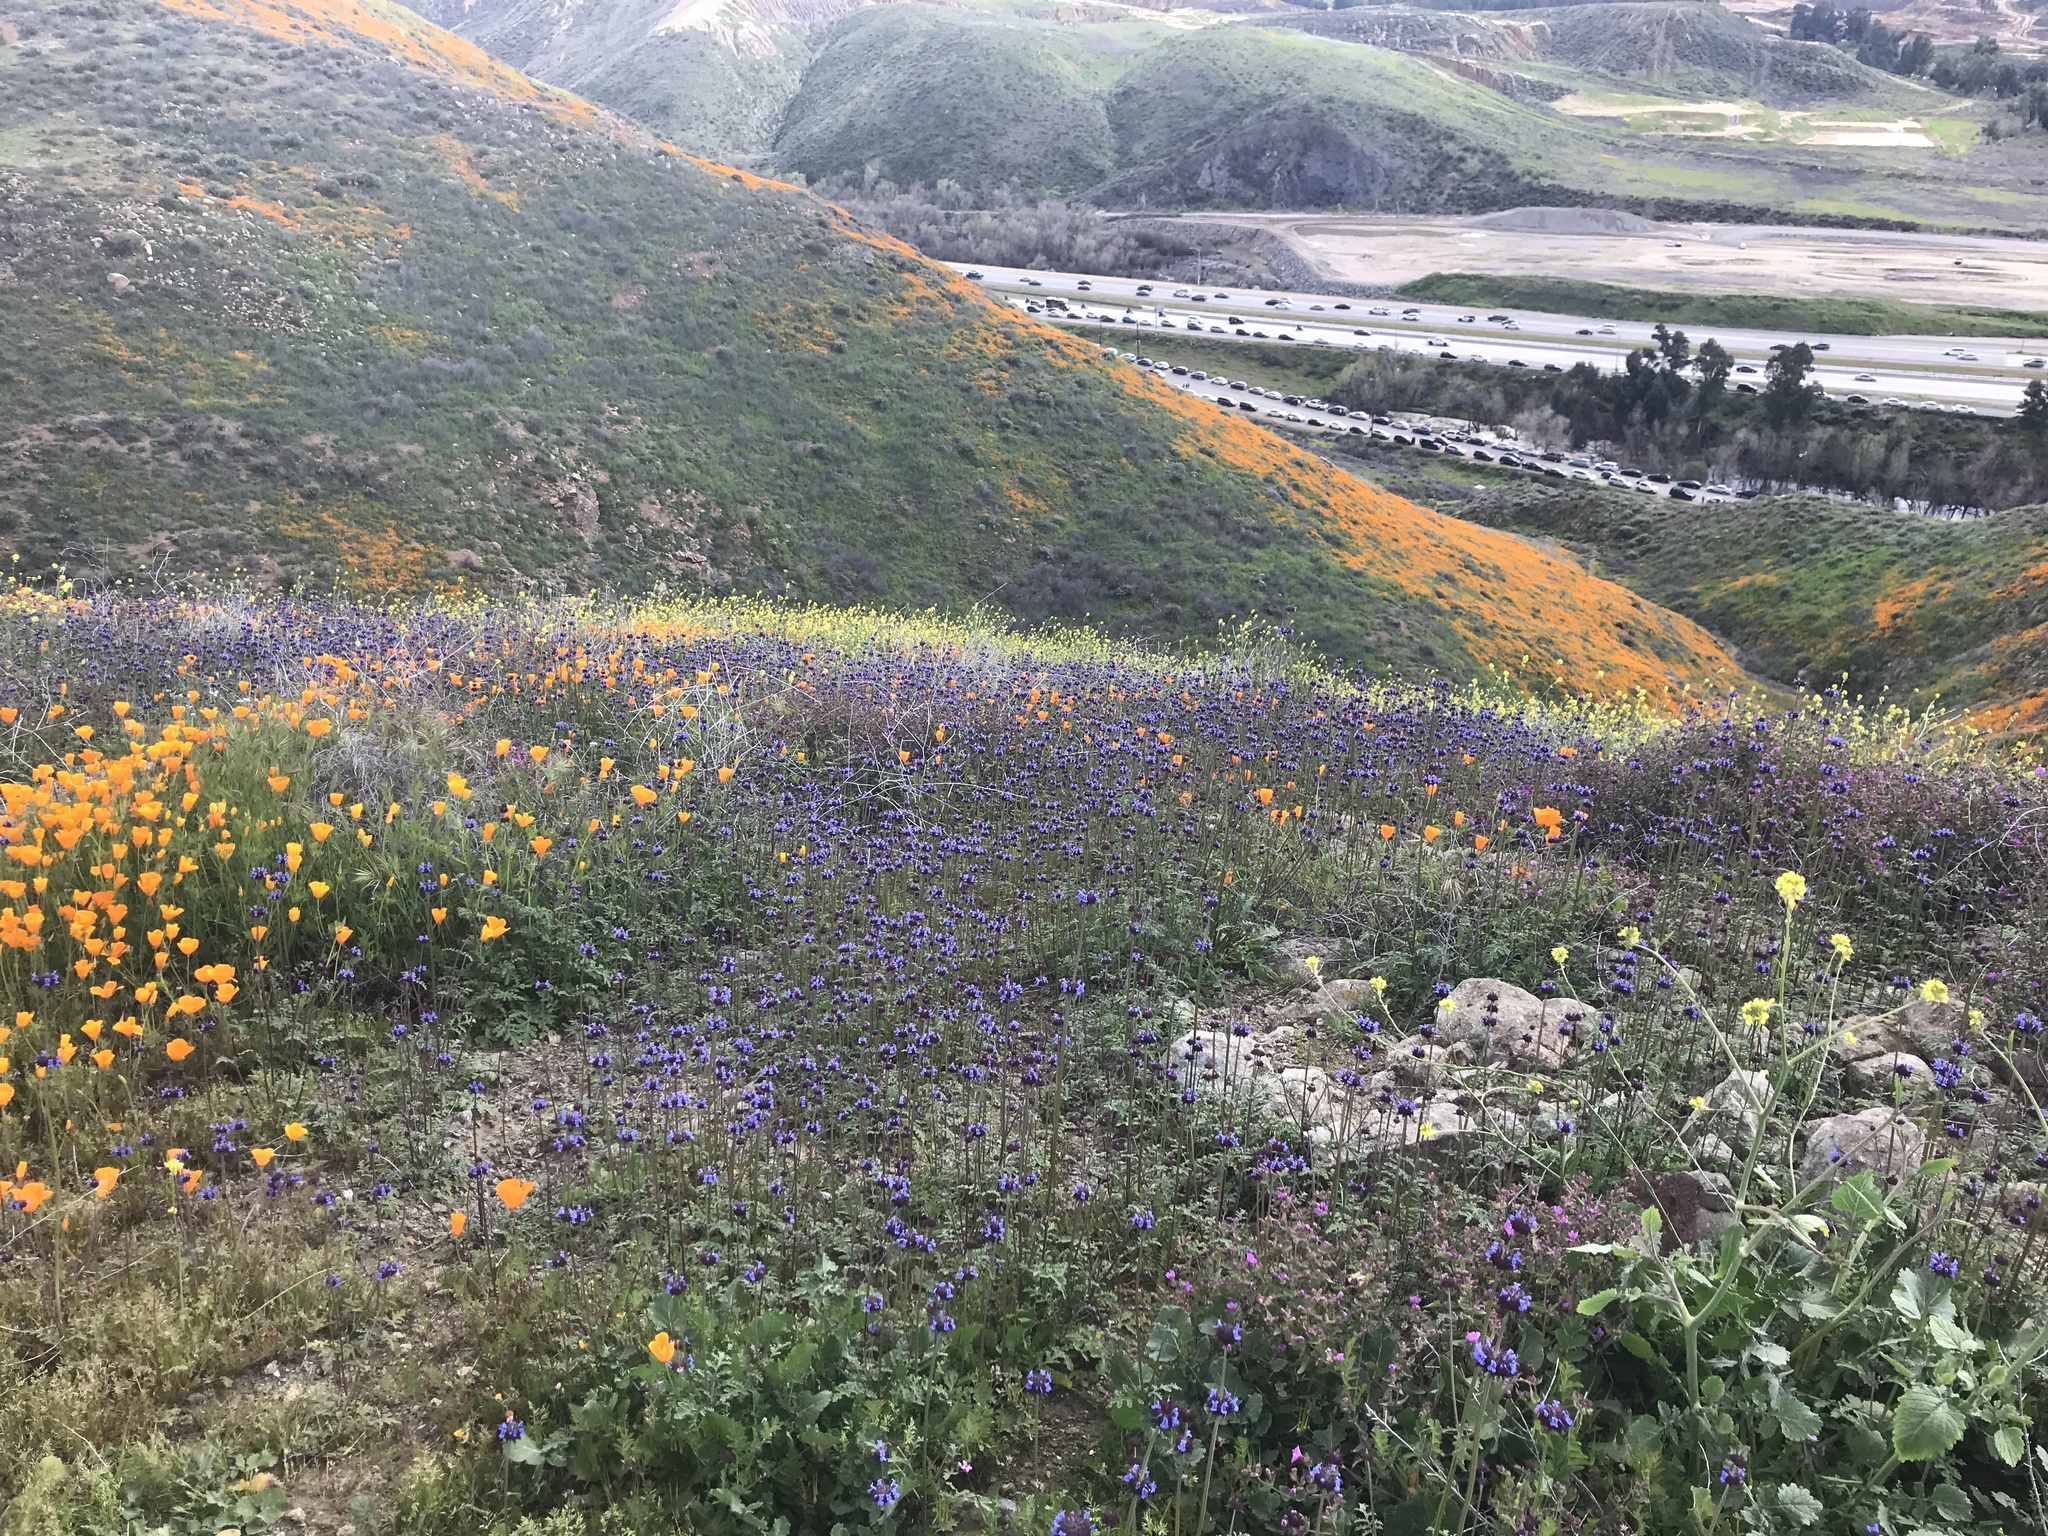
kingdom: Plantae
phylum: Tracheophyta
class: Magnoliopsida
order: Lamiales
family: Lamiaceae
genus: Salvia
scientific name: Salvia columbariae
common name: Chia
